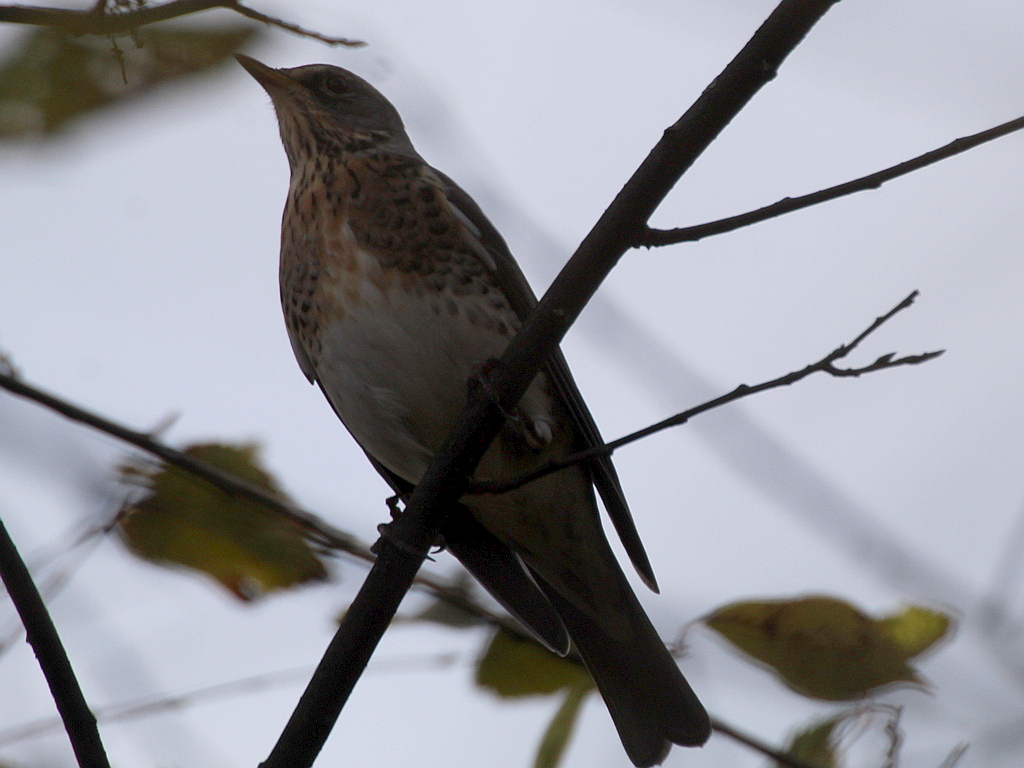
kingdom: Animalia
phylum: Chordata
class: Aves
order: Passeriformes
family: Turdidae
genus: Turdus
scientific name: Turdus pilaris
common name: Fieldfare
